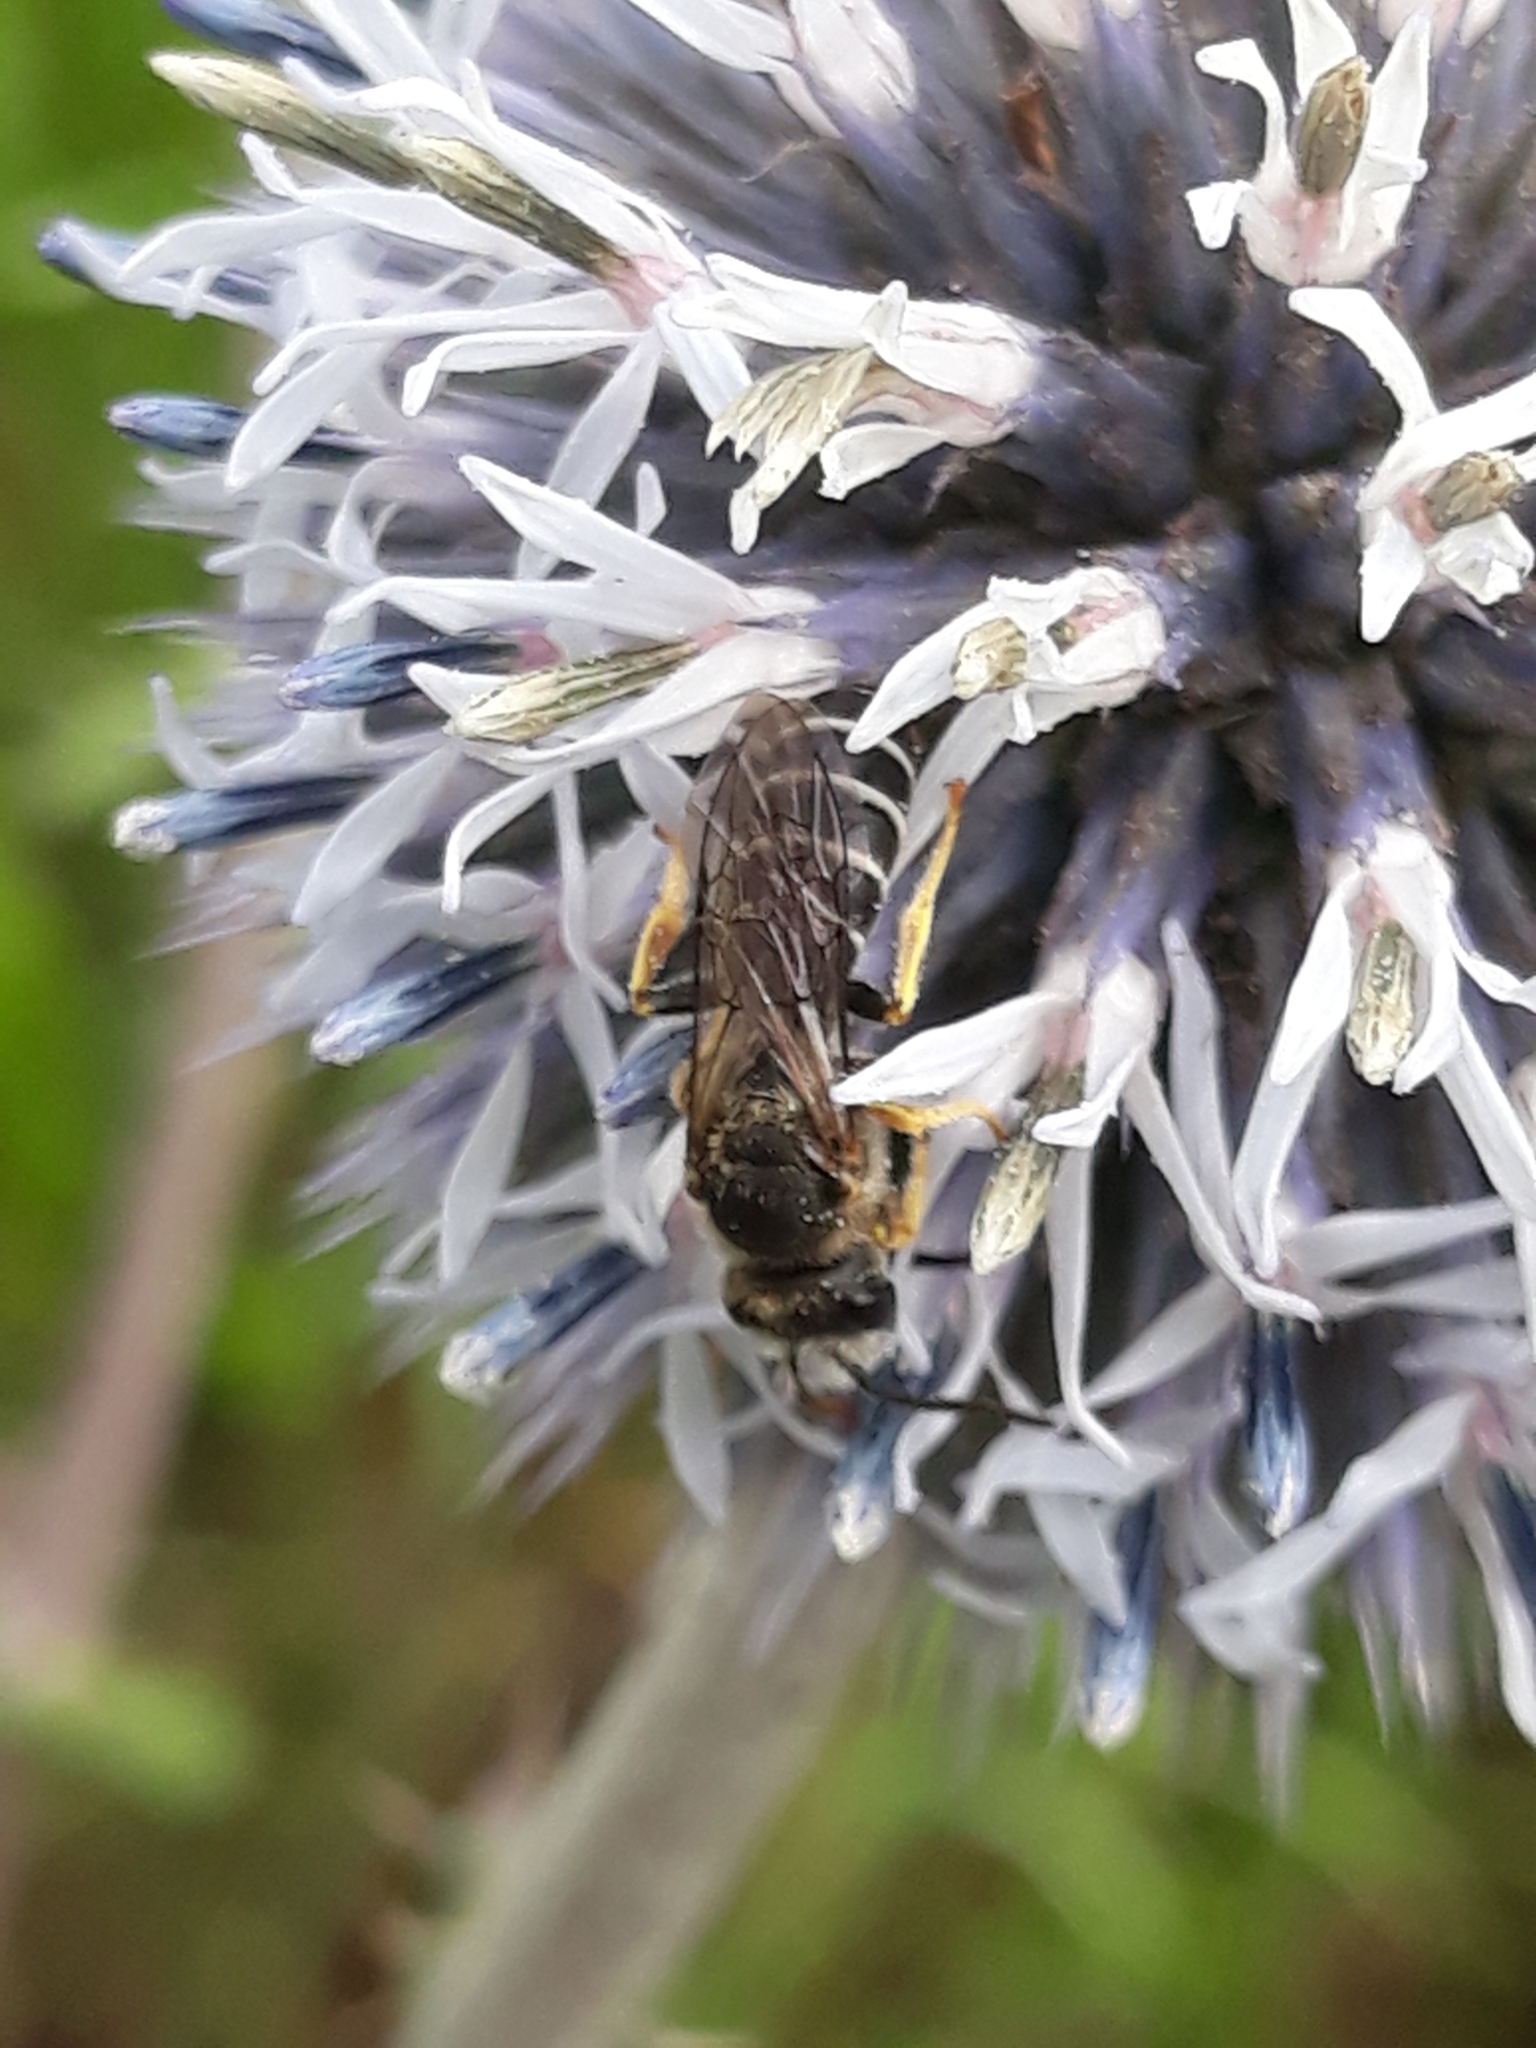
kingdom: Animalia
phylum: Arthropoda
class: Insecta
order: Hymenoptera
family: Halictidae
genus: Halictus
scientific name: Halictus rubicundus
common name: Orange-legged furrow bee
